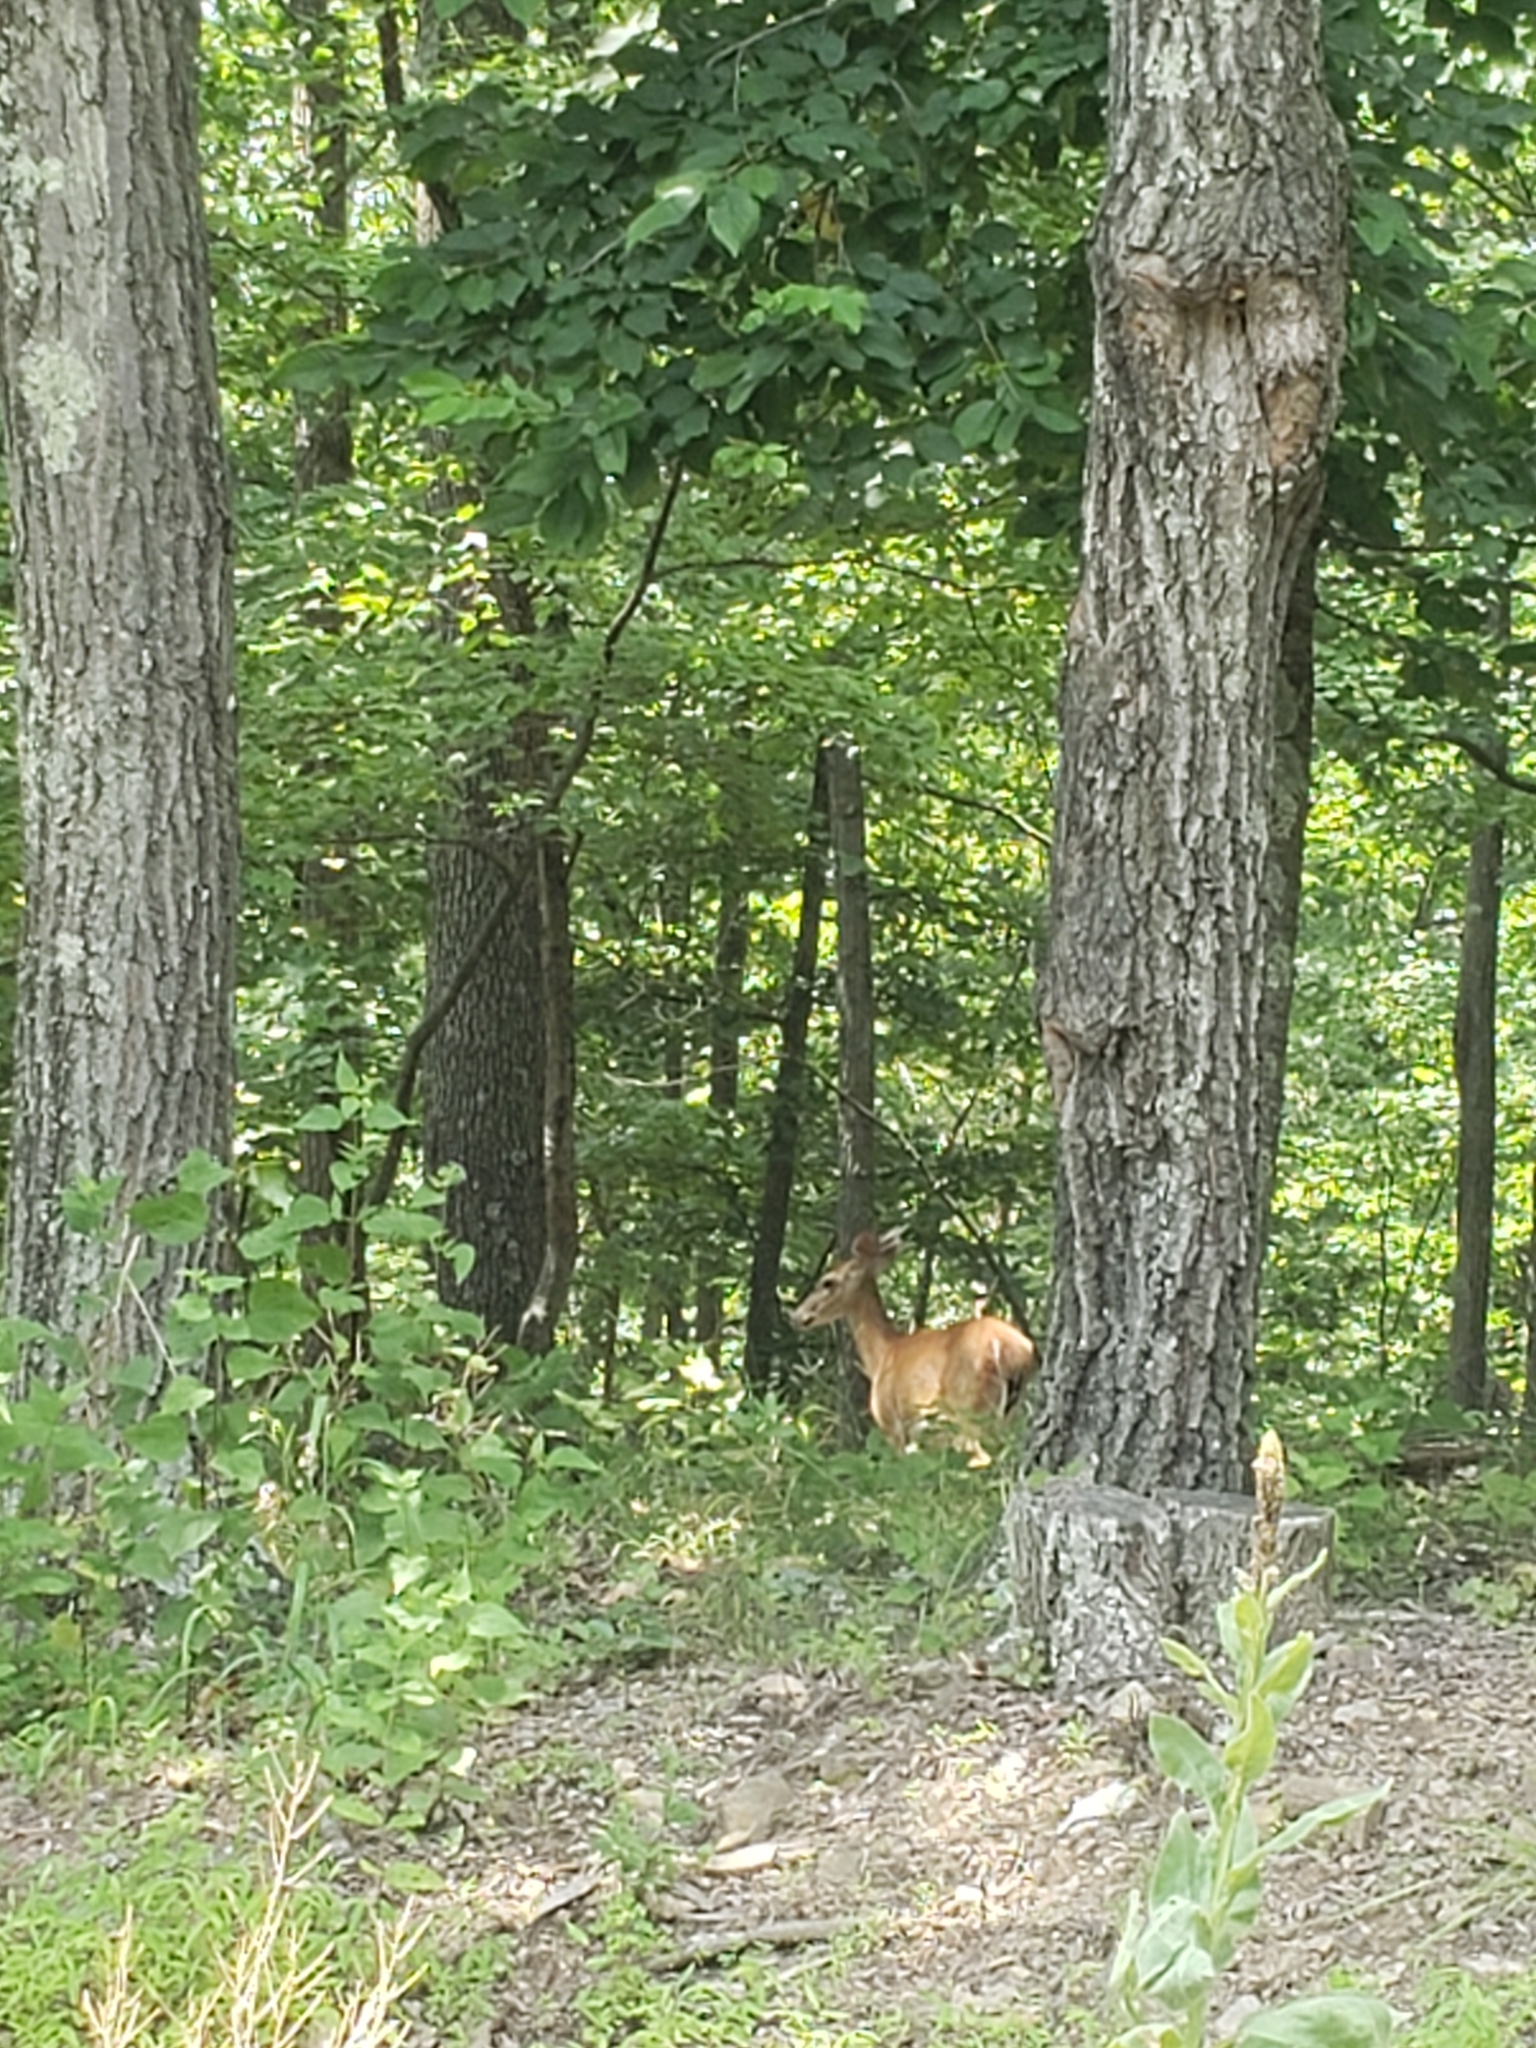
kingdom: Animalia
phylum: Chordata
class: Mammalia
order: Artiodactyla
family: Cervidae
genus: Odocoileus
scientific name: Odocoileus virginianus
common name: White-tailed deer
